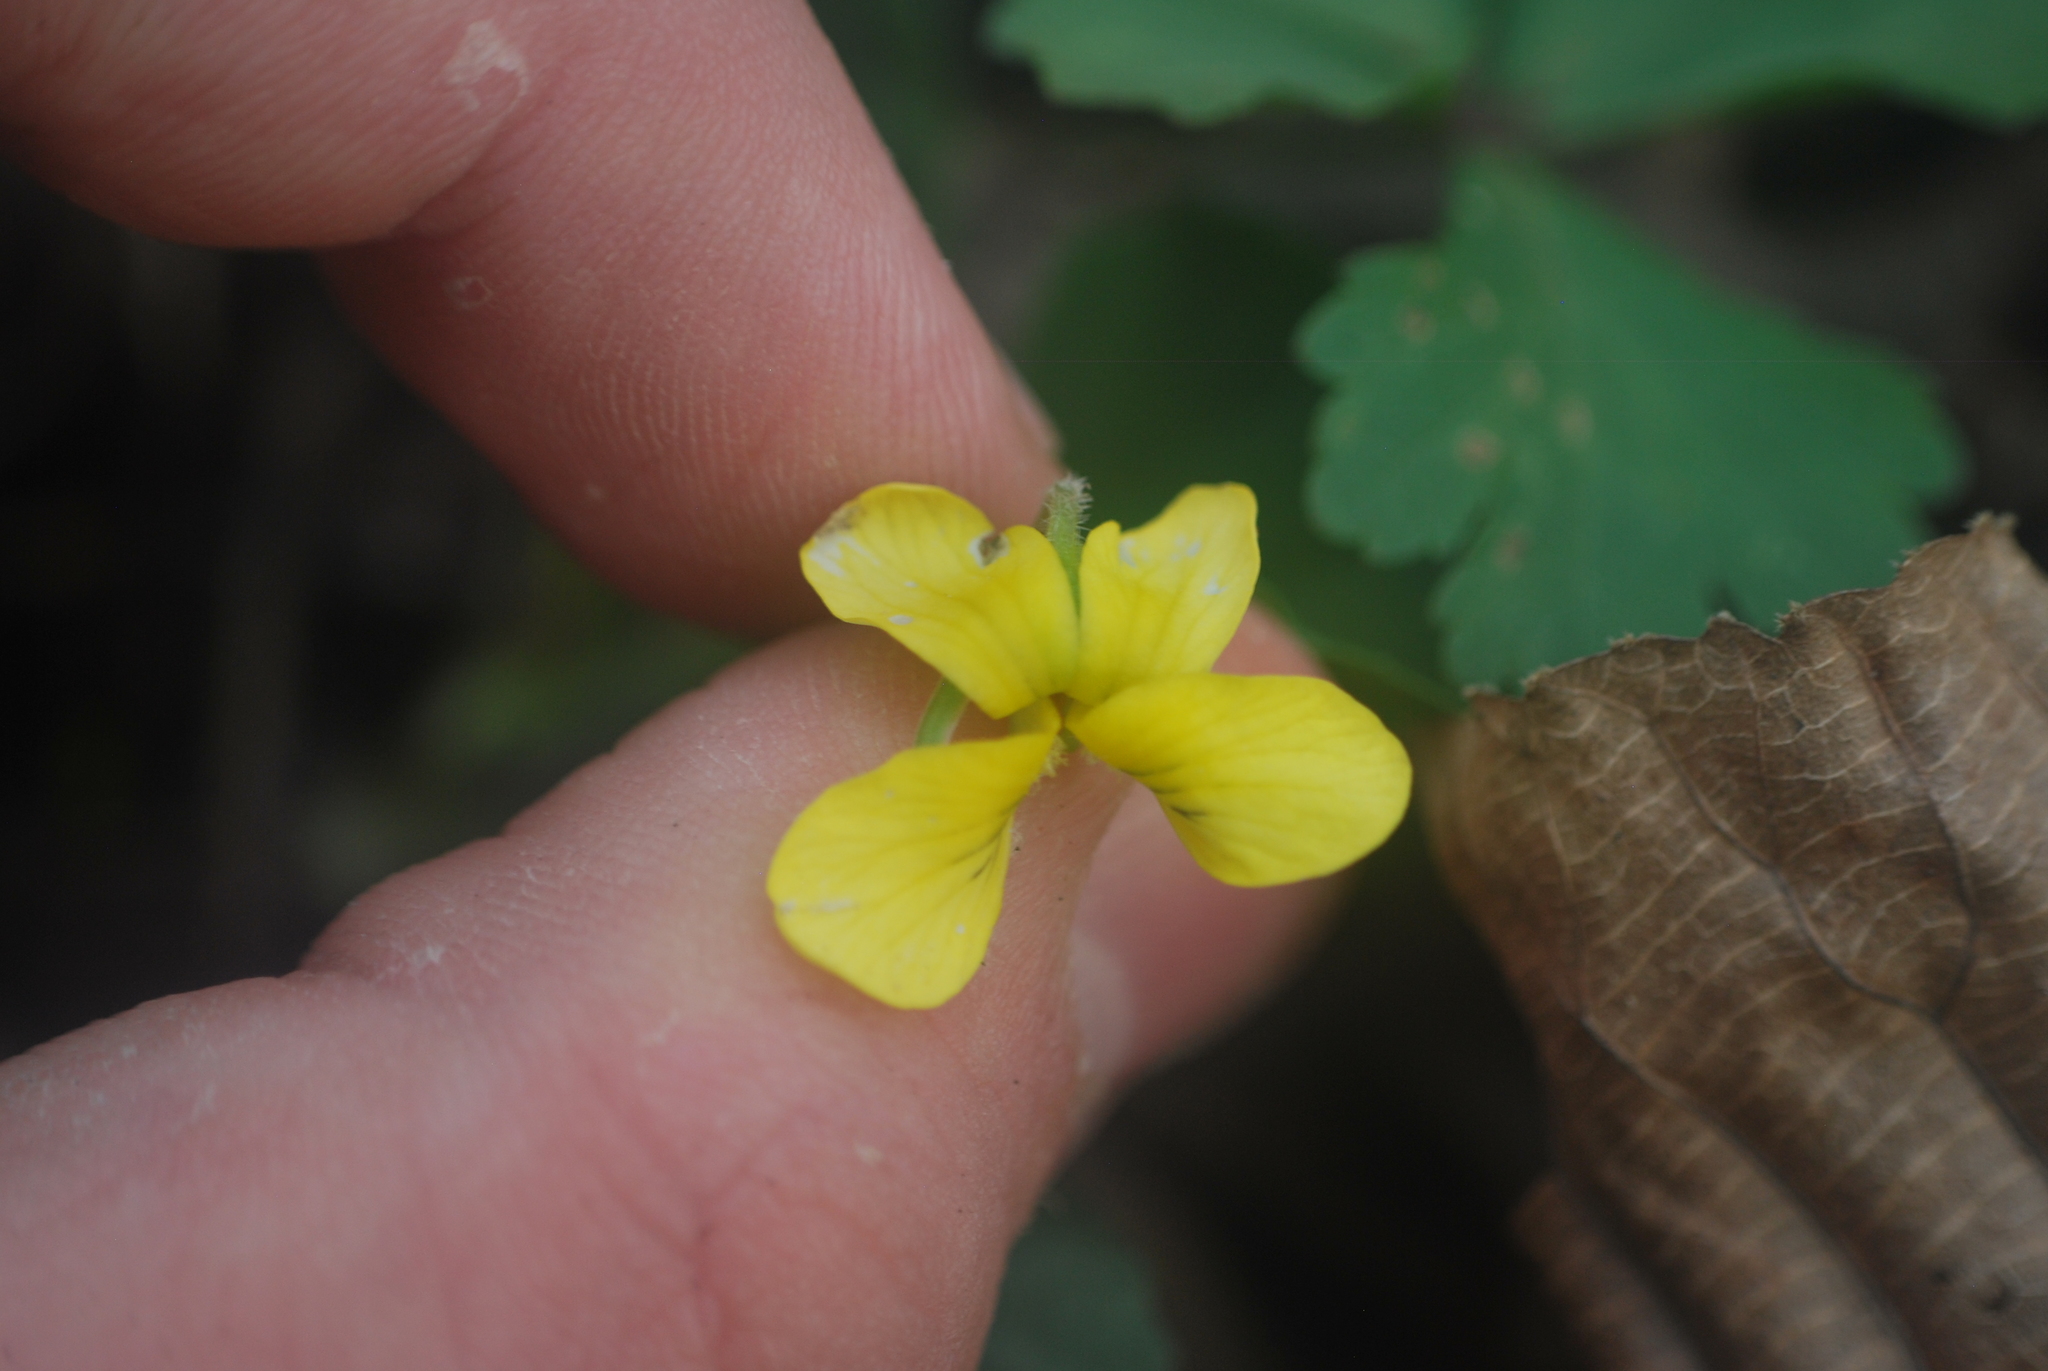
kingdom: Plantae
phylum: Tracheophyta
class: Magnoliopsida
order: Malpighiales
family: Violaceae
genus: Viola
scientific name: Viola eriocarpa
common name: Smooth yellow violet
